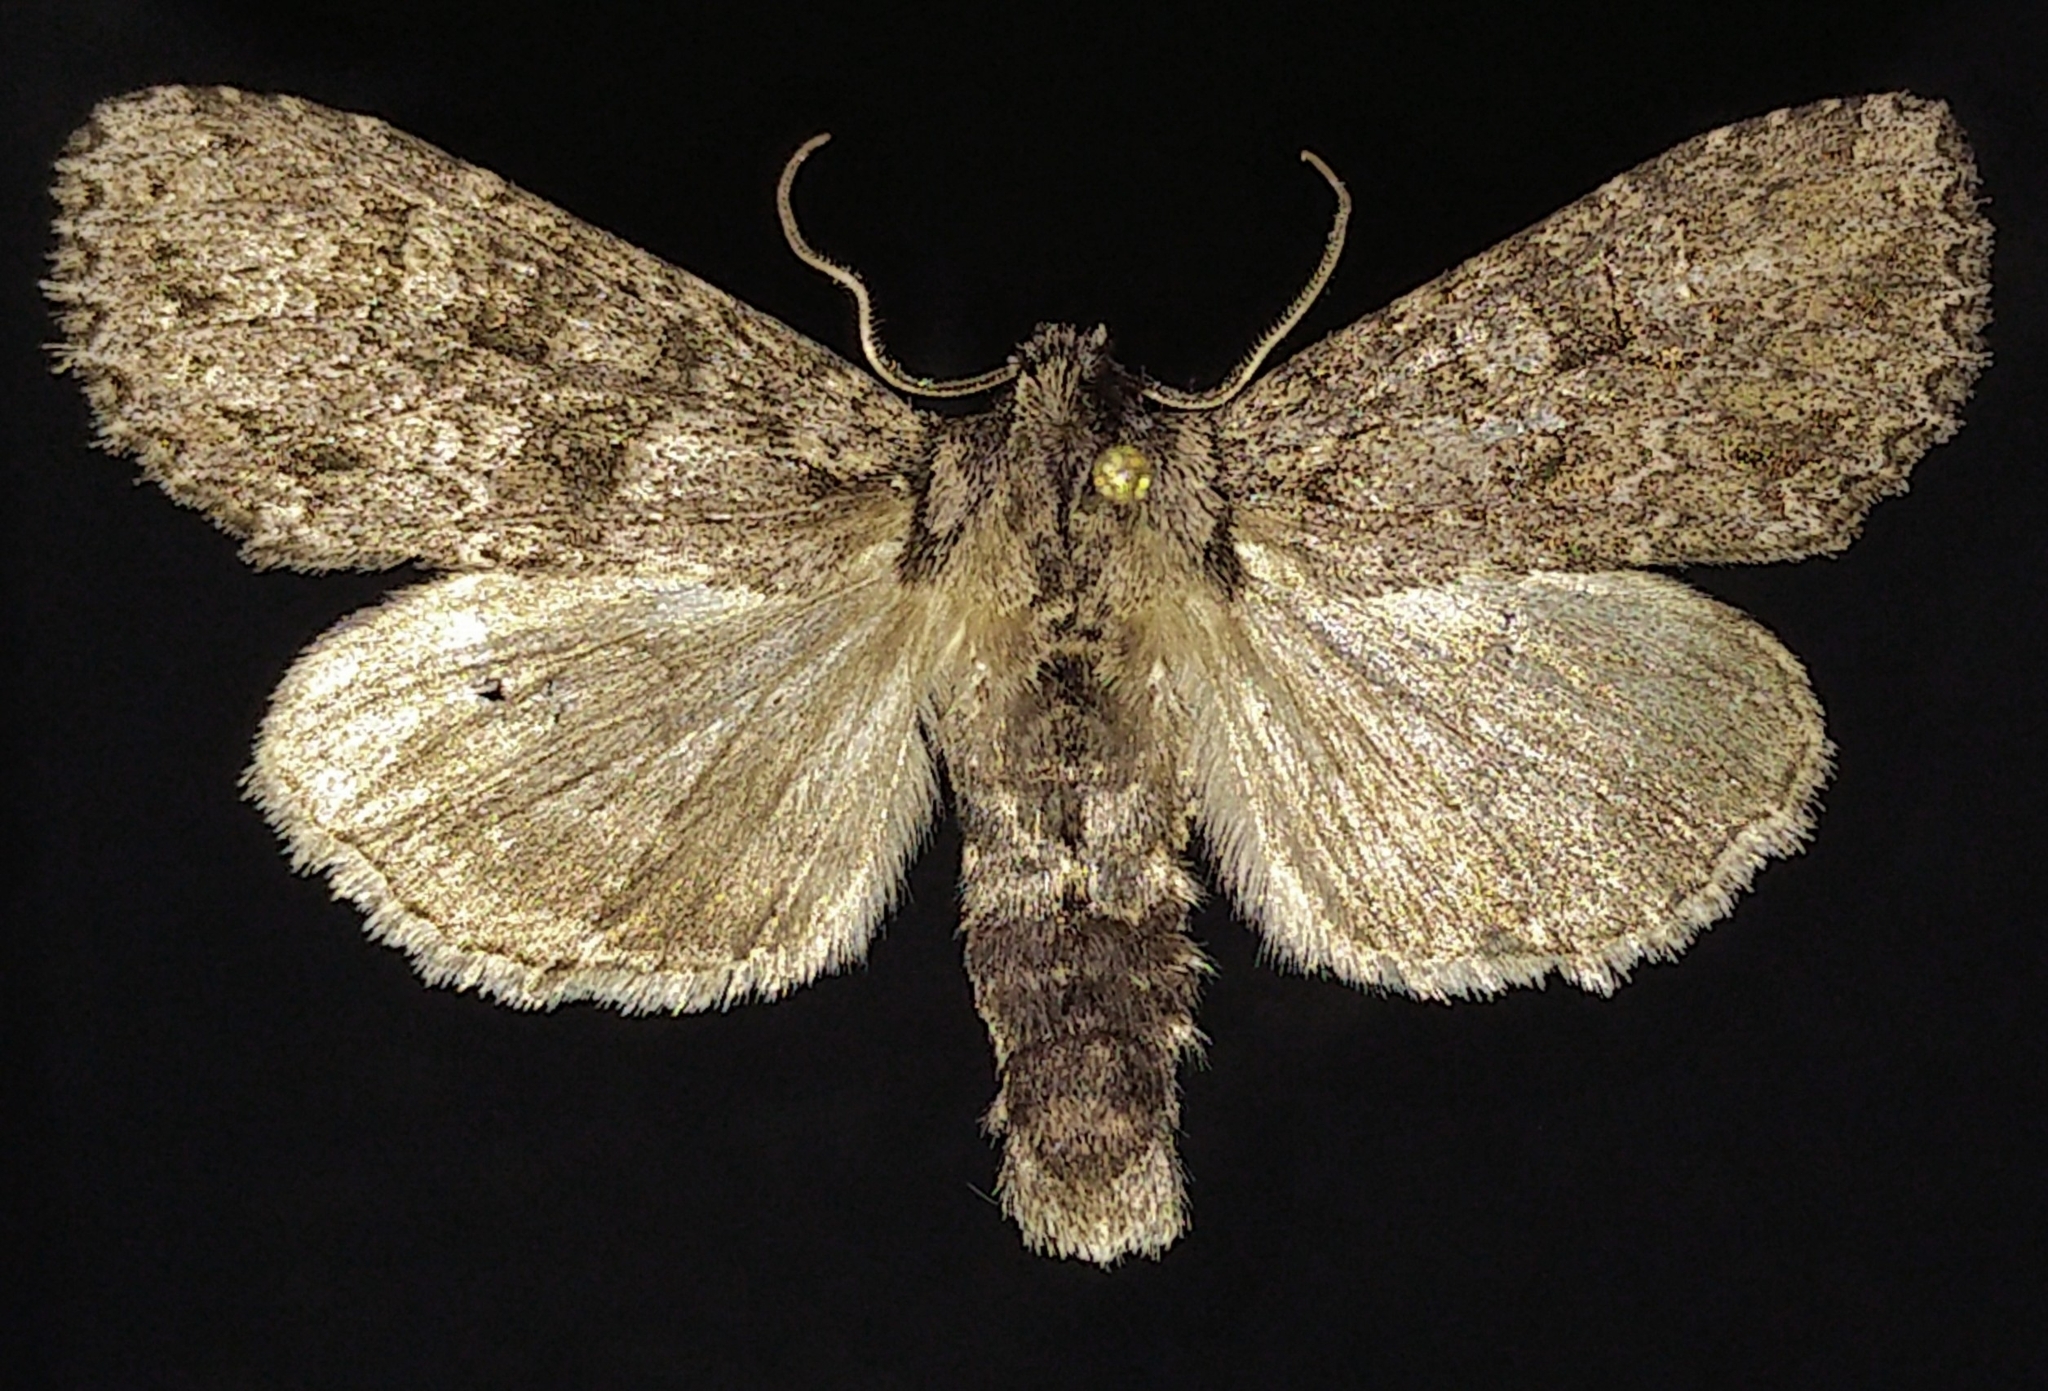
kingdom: Animalia
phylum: Arthropoda
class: Insecta
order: Lepidoptera
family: Noctuidae
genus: Polia
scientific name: Polia imbrifera
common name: Cloudy arches moth
